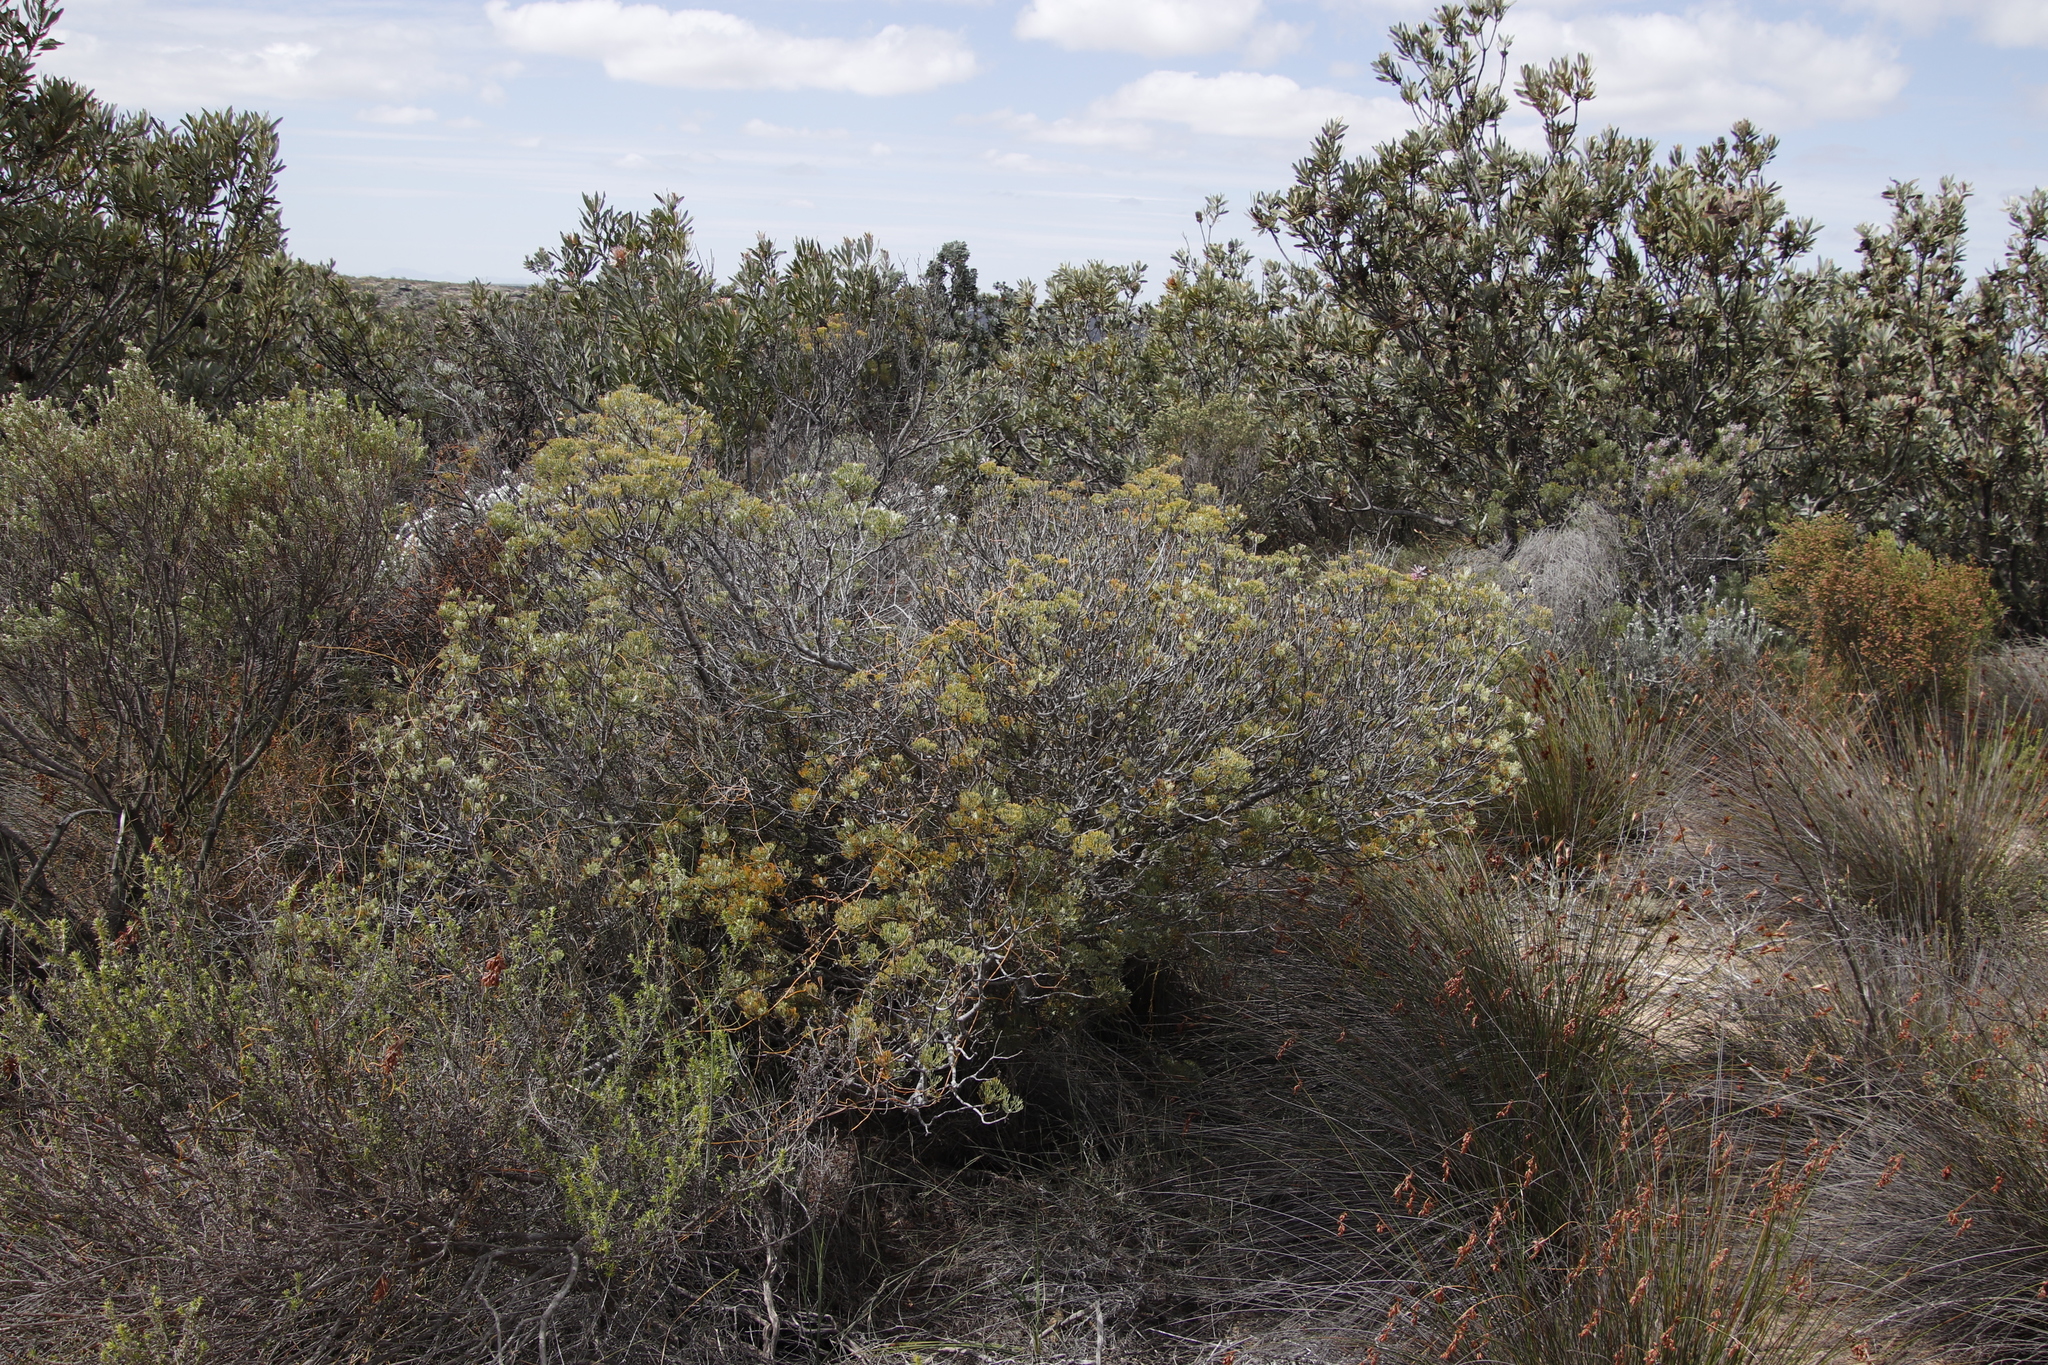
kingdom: Plantae
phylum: Tracheophyta
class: Magnoliopsida
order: Proteales
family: Proteaceae
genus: Paranomus
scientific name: Paranomus bracteolaris
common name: Bokkeveld tree sceptre
